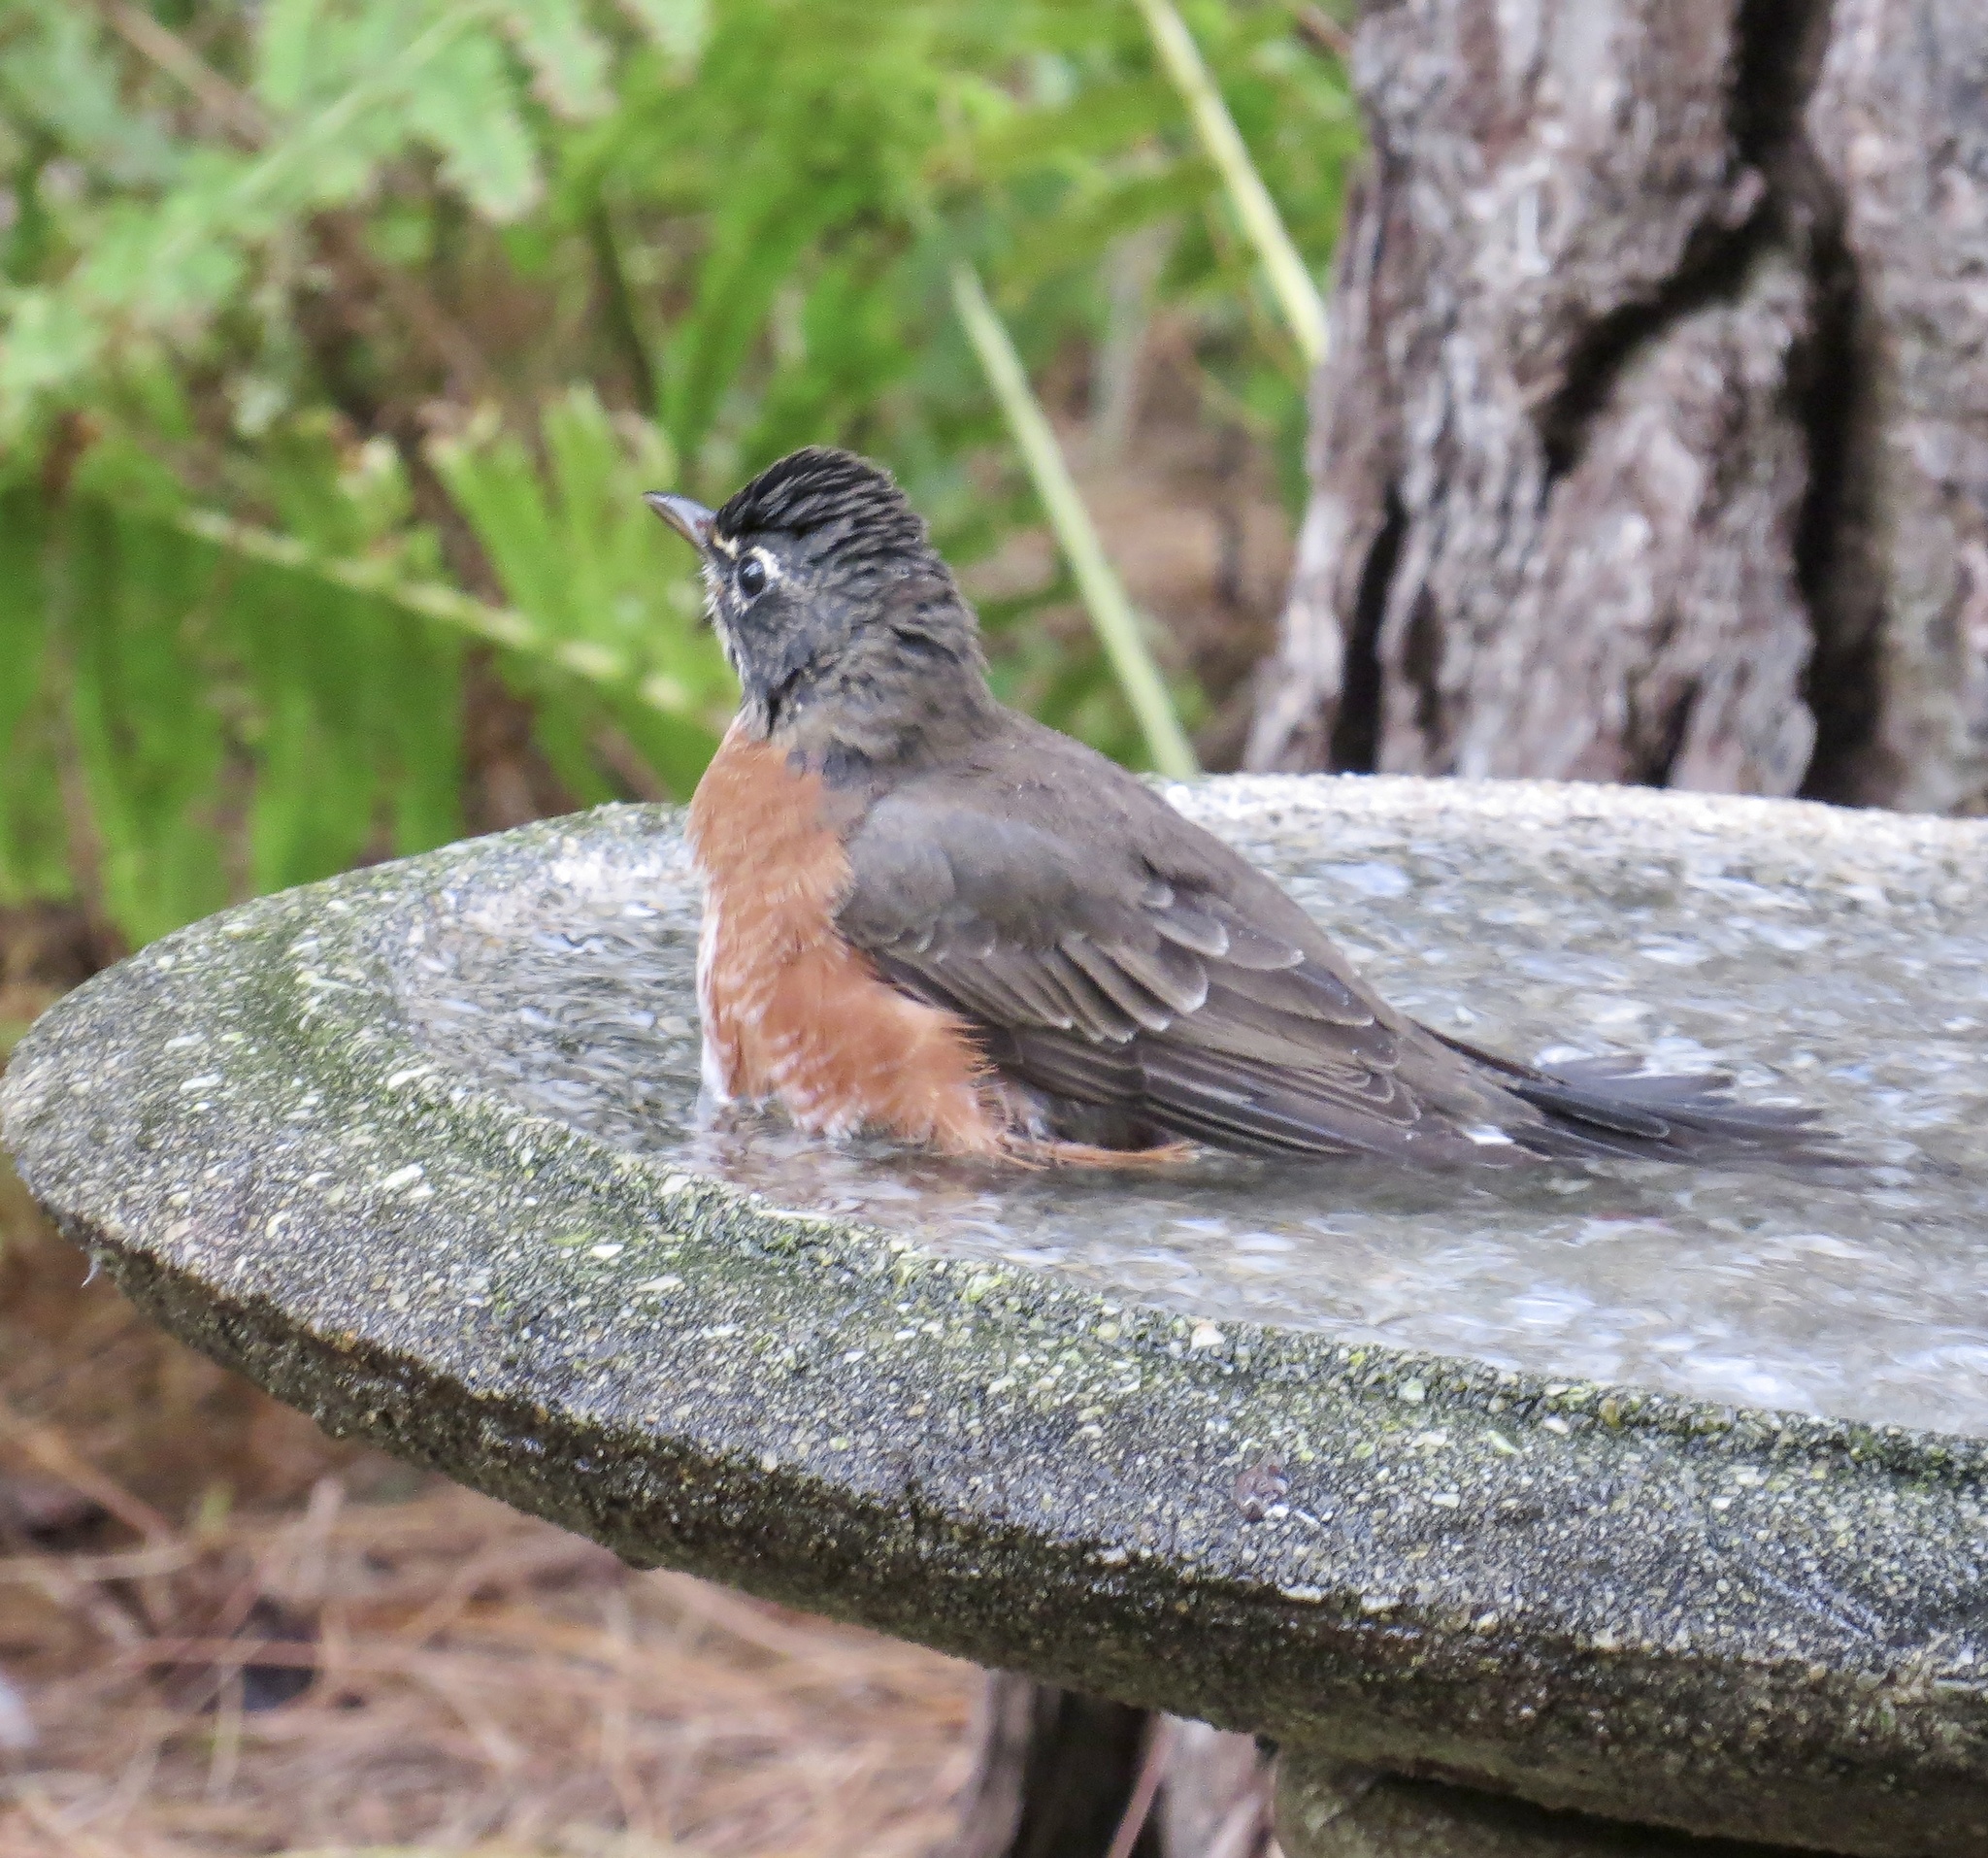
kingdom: Animalia
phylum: Chordata
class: Aves
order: Passeriformes
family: Turdidae
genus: Turdus
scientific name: Turdus migratorius
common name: American robin
